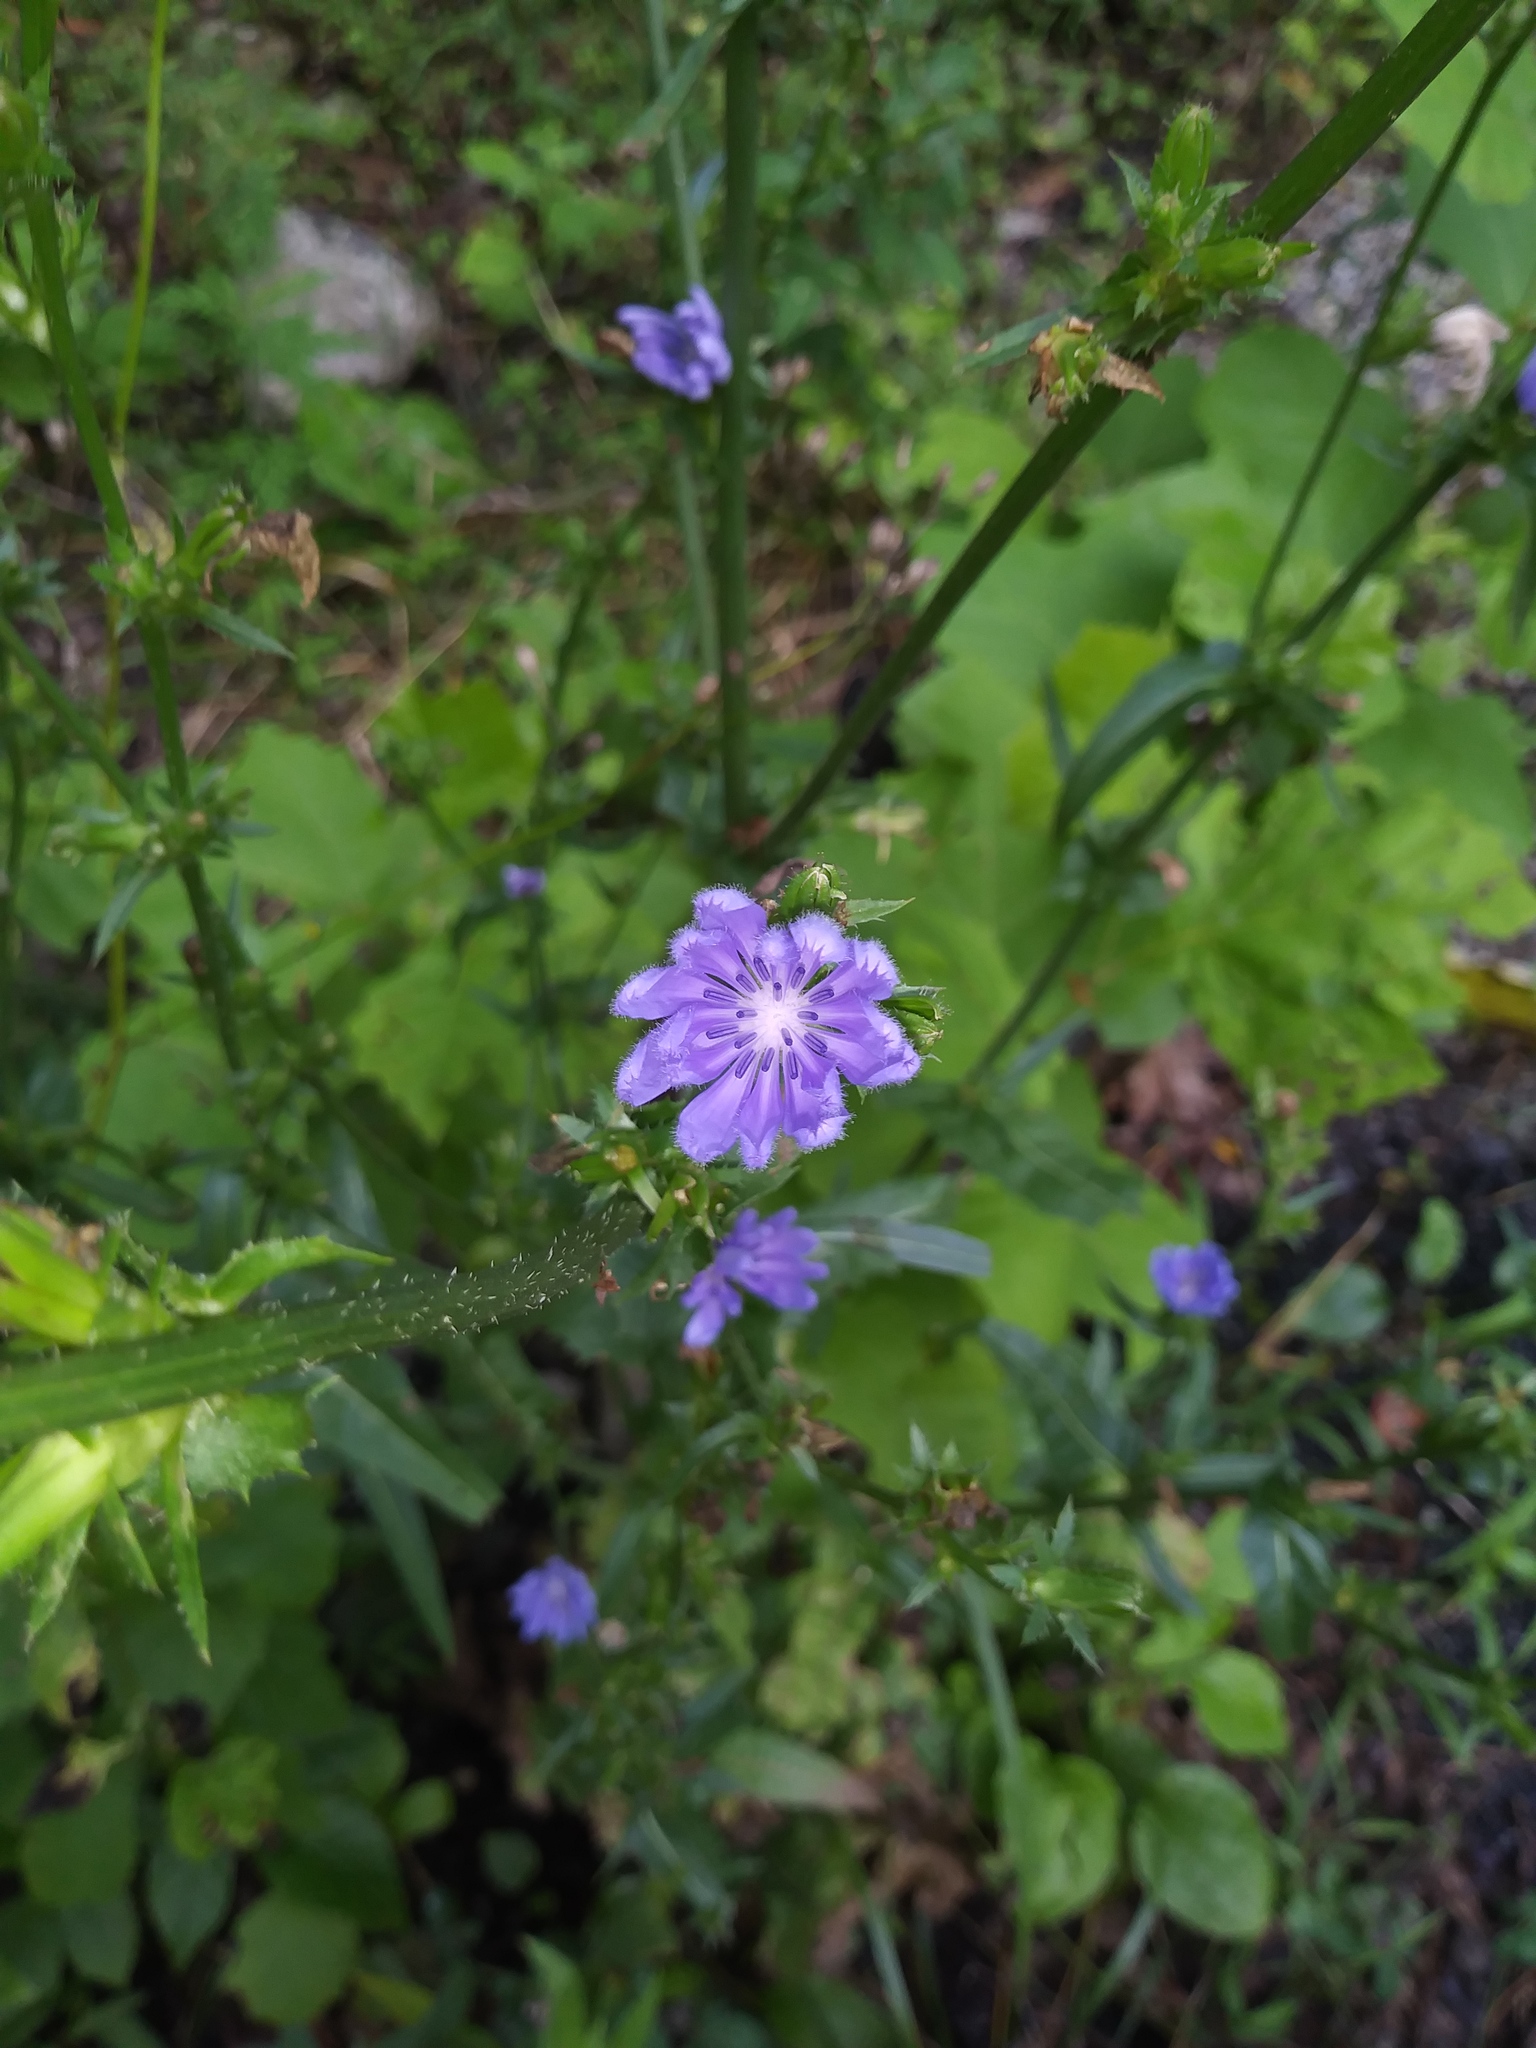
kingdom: Plantae
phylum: Tracheophyta
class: Magnoliopsida
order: Asterales
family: Asteraceae
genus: Cichorium
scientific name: Cichorium intybus
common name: Chicory
